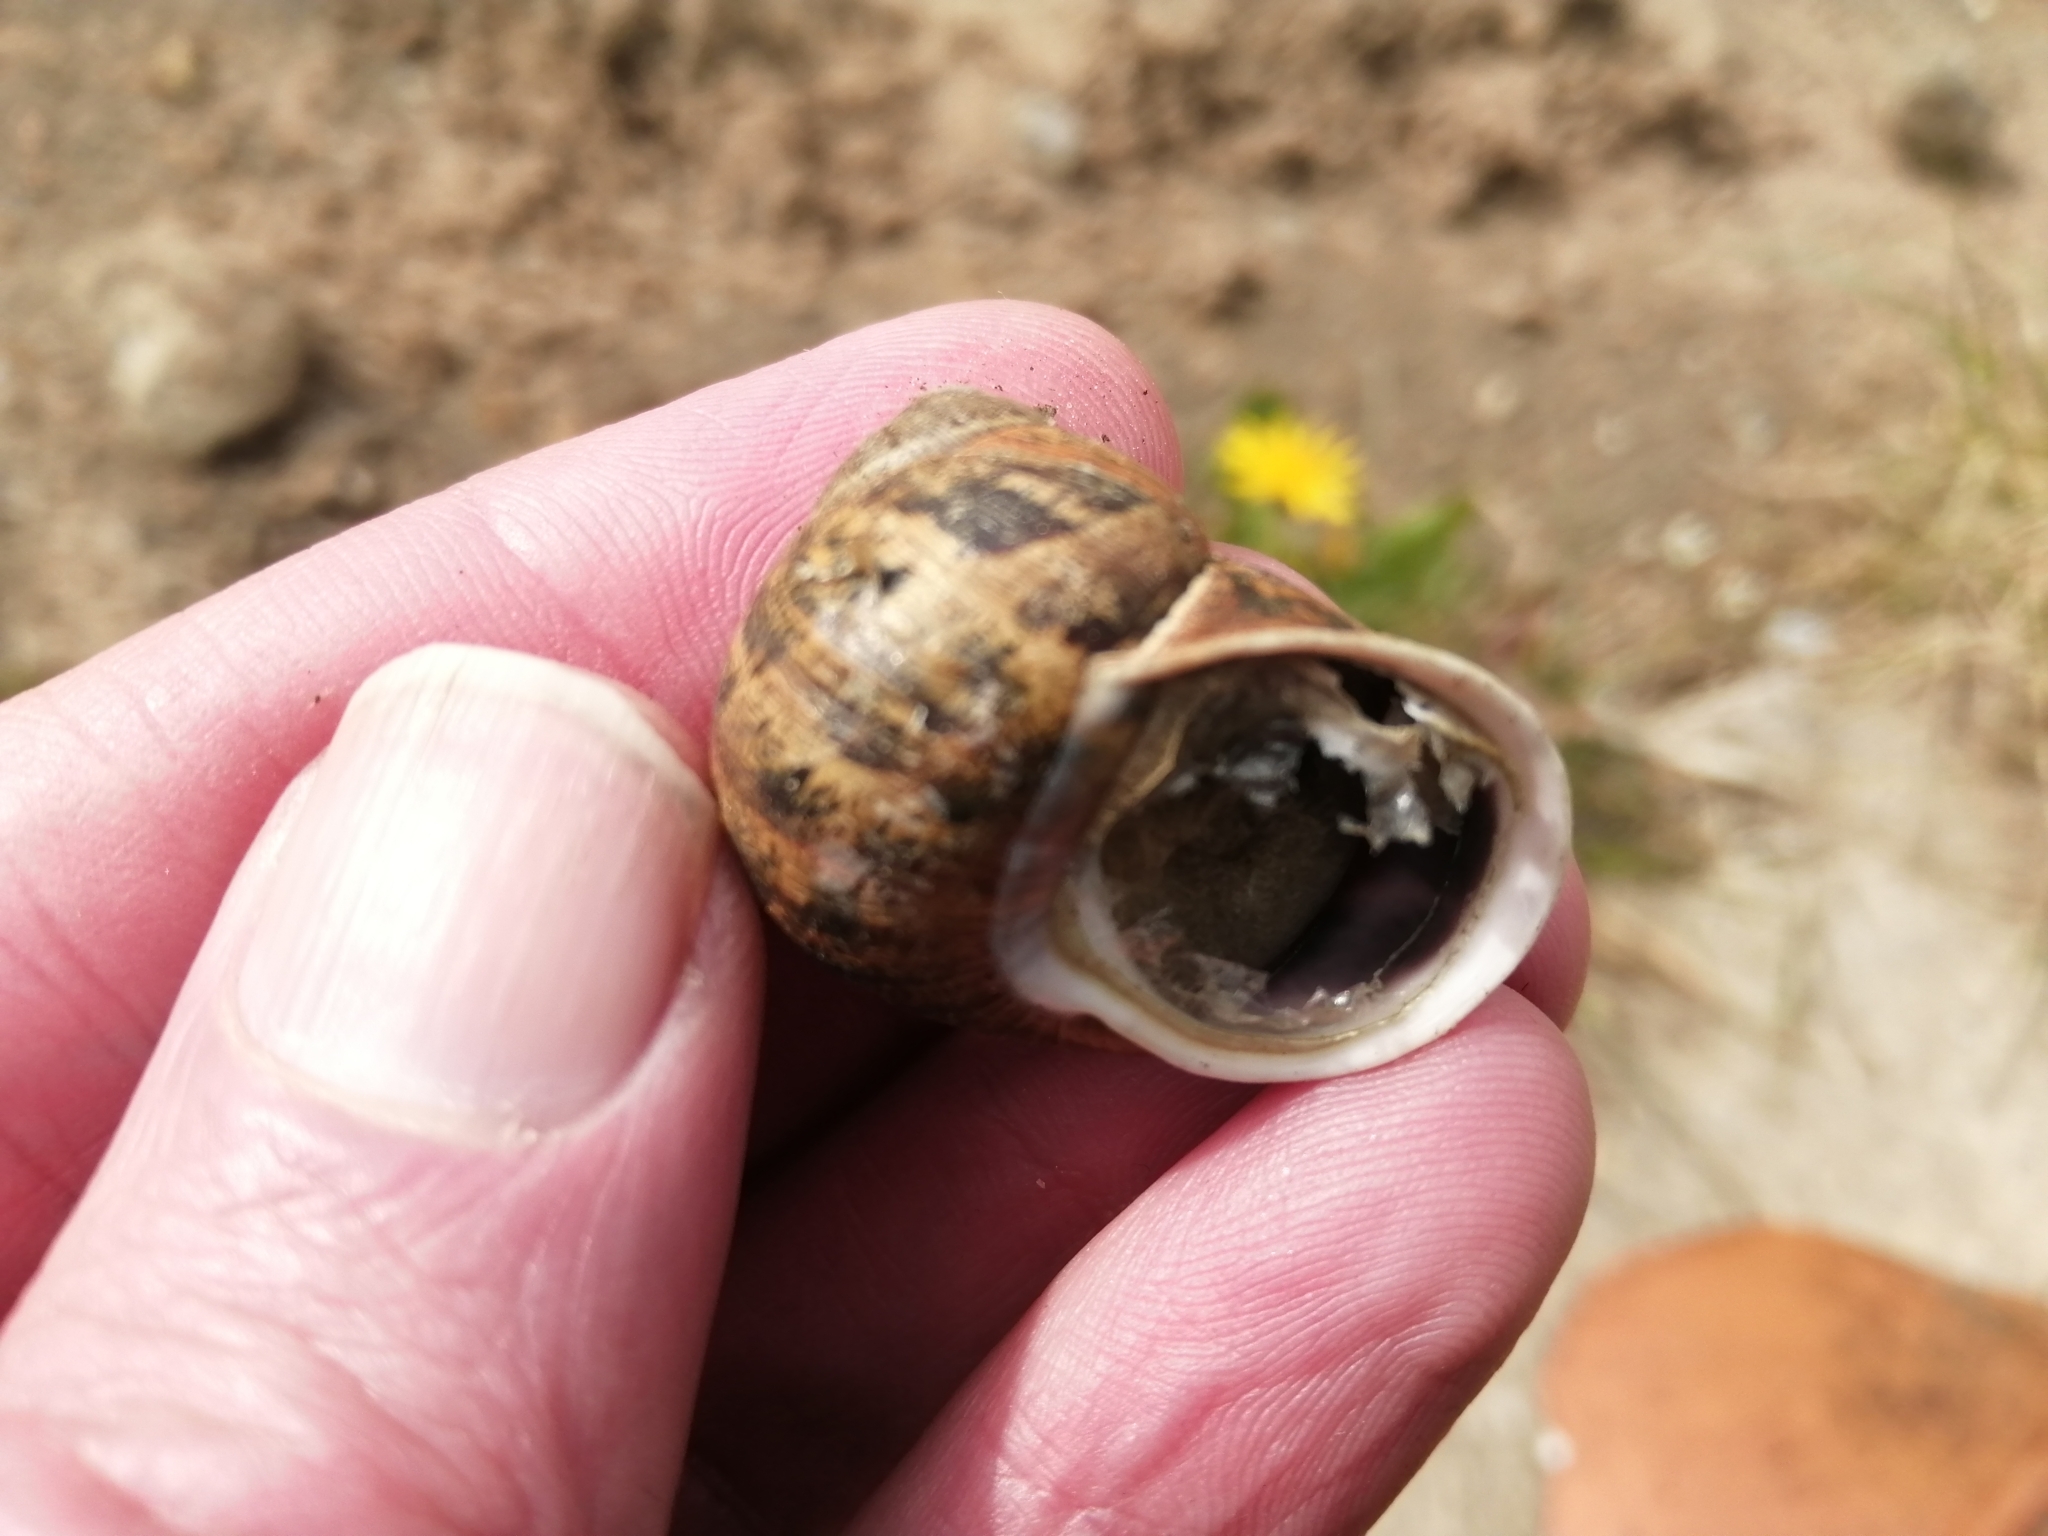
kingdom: Animalia
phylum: Mollusca
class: Gastropoda
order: Stylommatophora
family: Helicidae
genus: Cornu
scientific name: Cornu aspersum
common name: Brown garden snail
